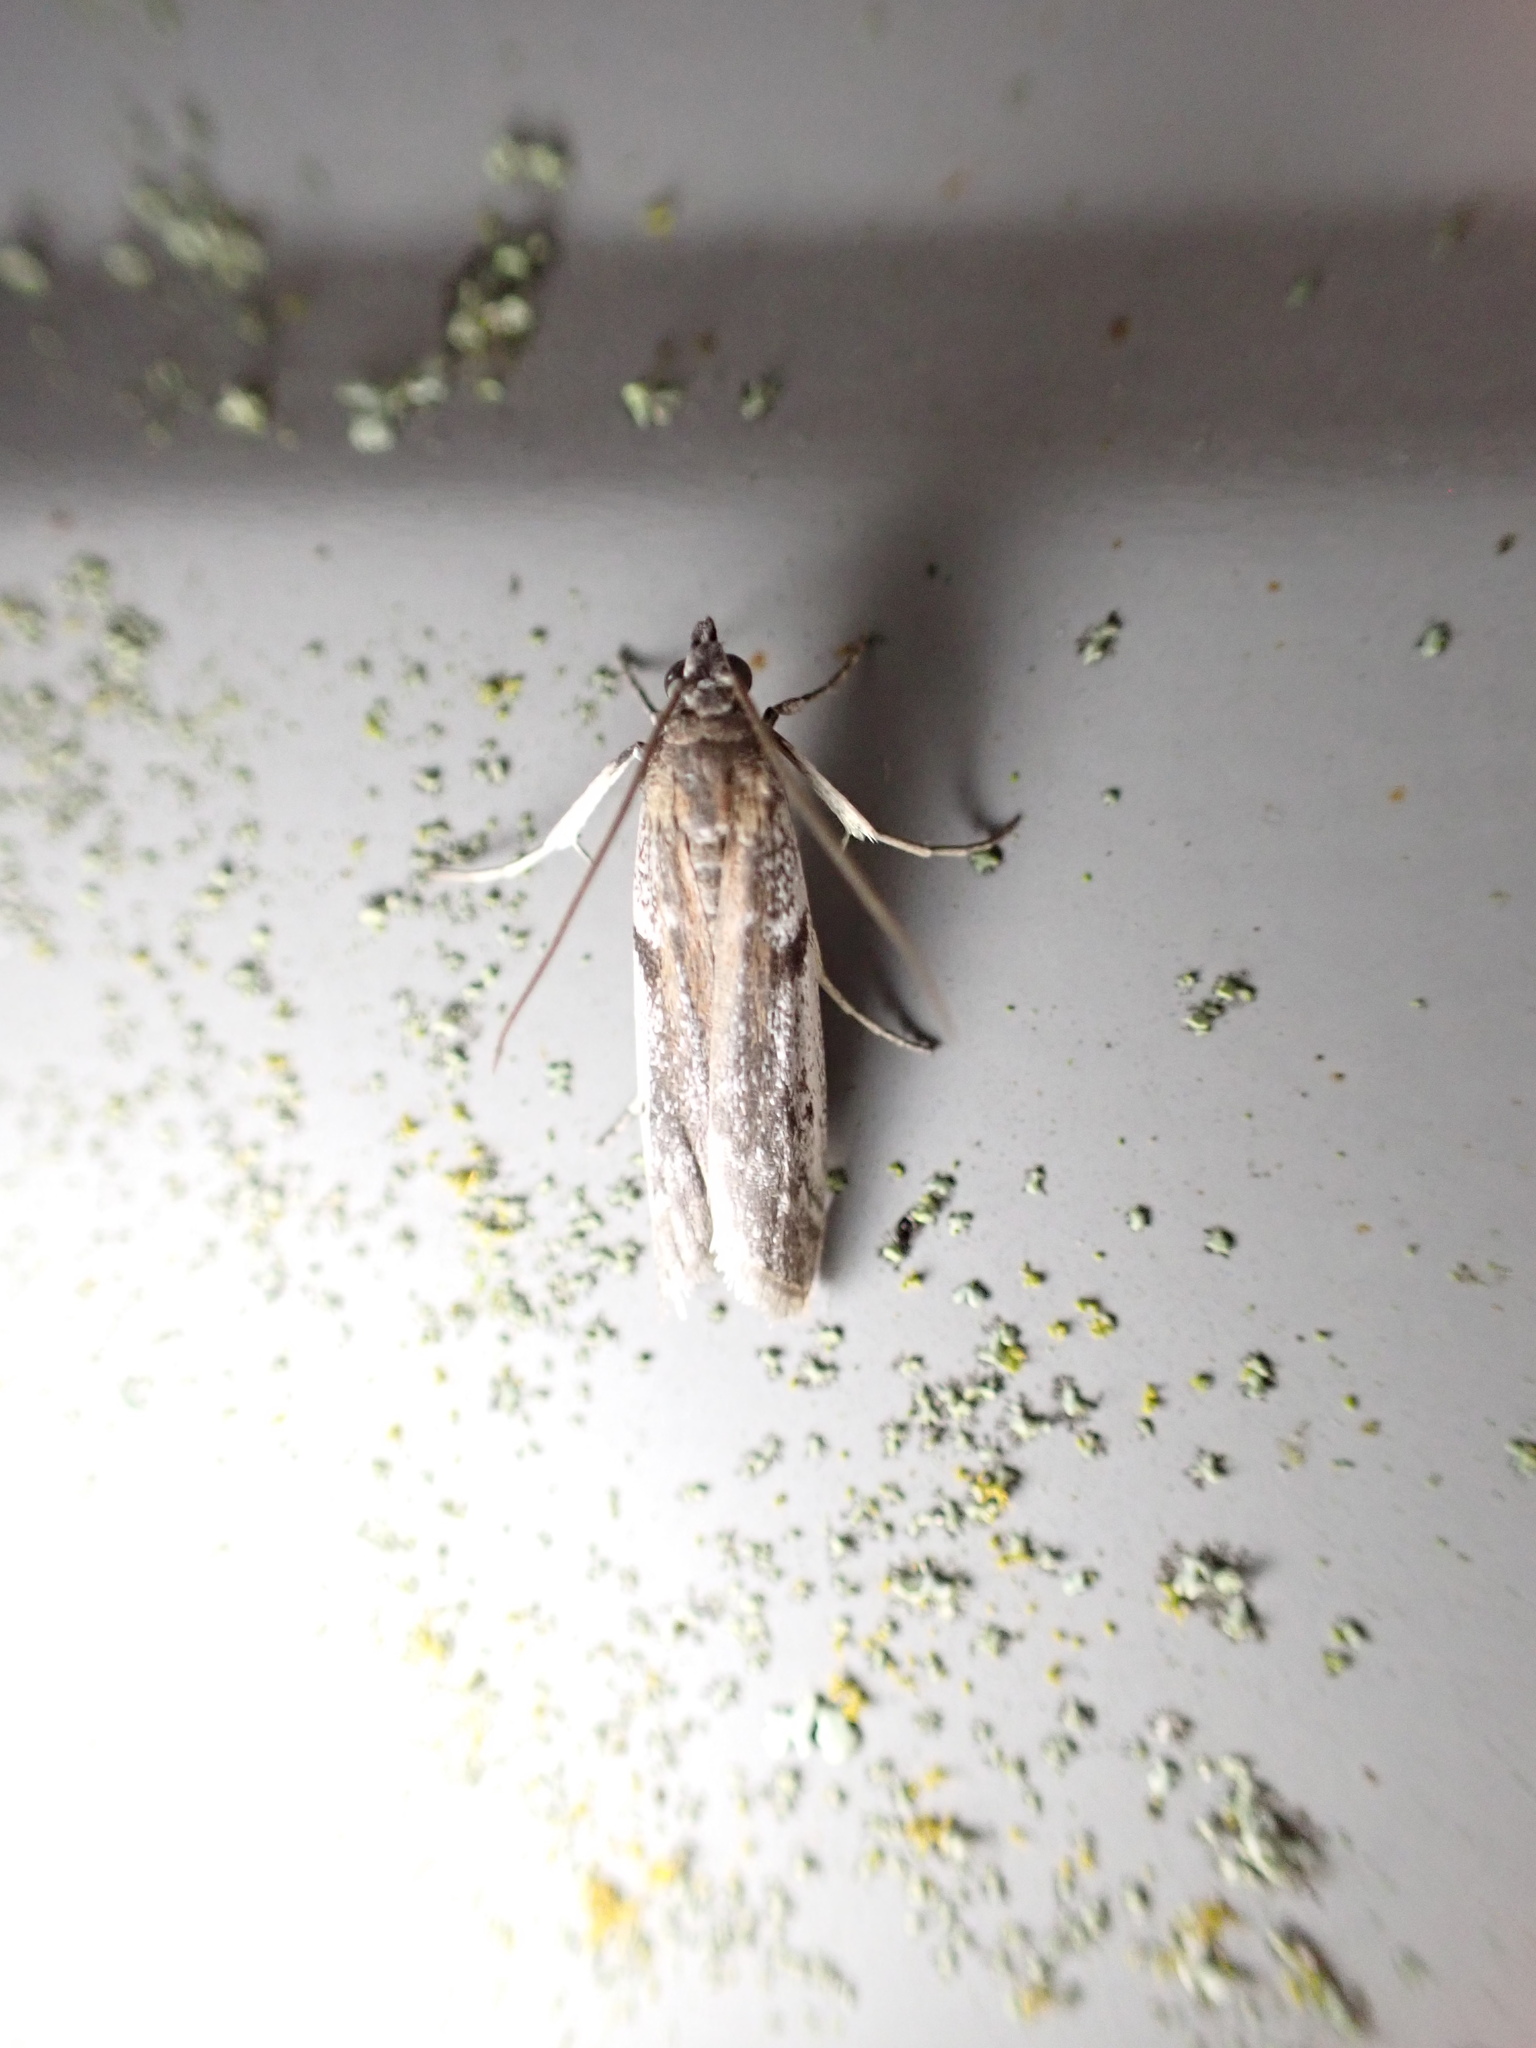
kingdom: Animalia
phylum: Arthropoda
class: Insecta
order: Lepidoptera
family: Pyralidae
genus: Patagoniodes
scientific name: Patagoniodes farinaria
